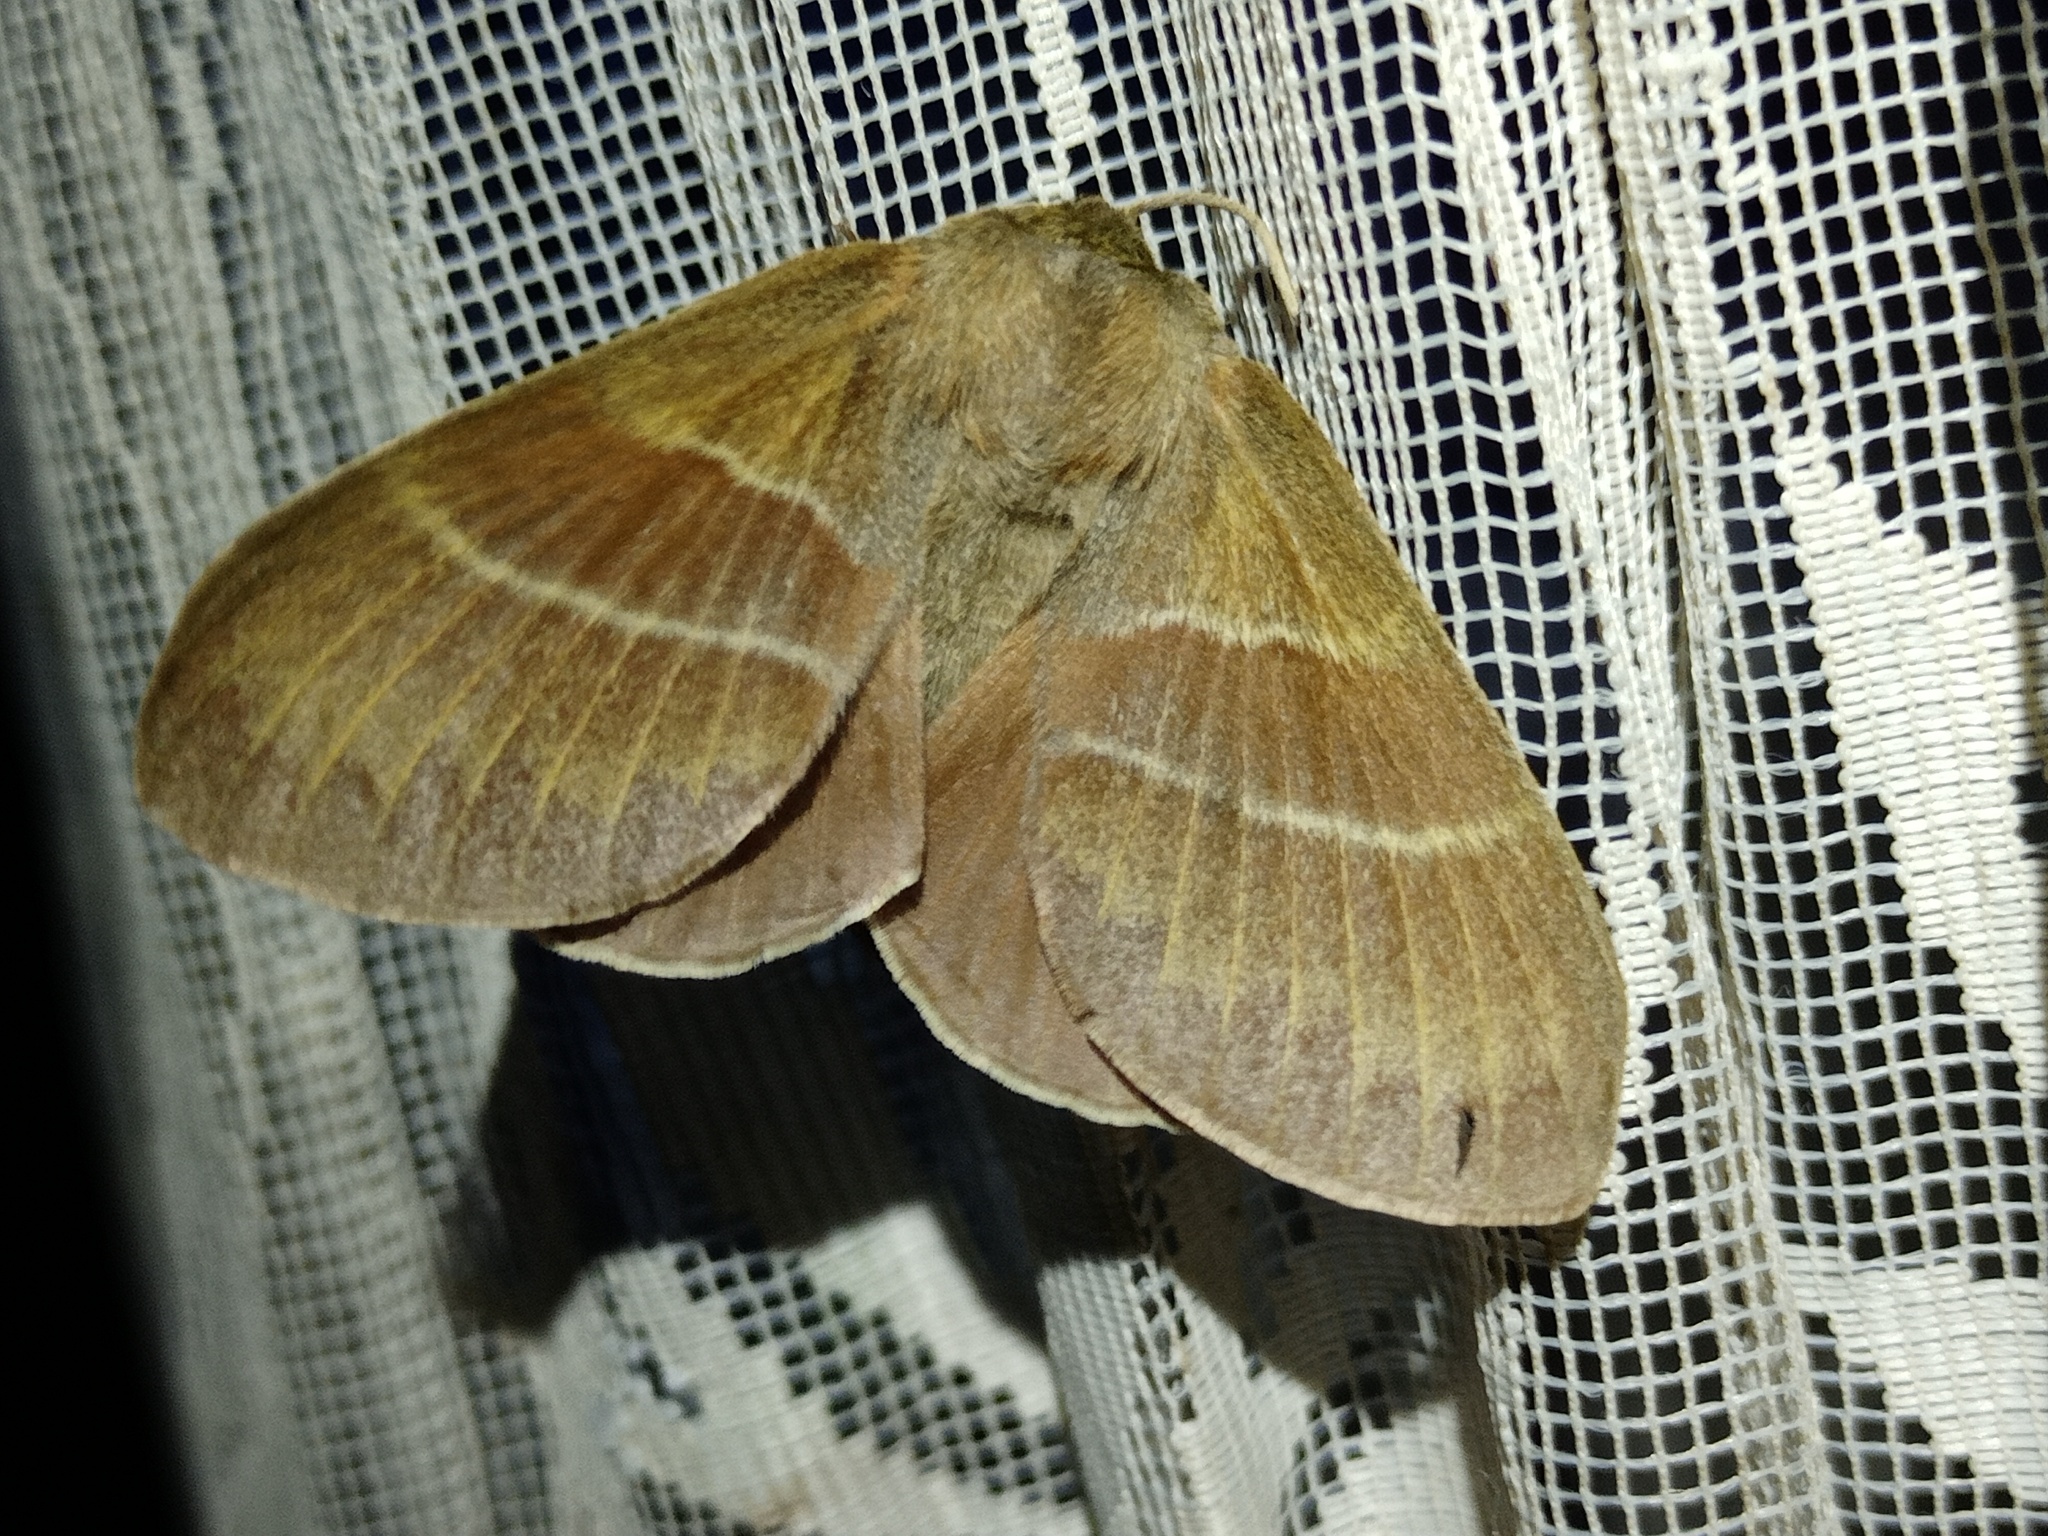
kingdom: Animalia
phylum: Arthropoda
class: Insecta
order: Lepidoptera
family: Lasiocampidae
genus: Macrothylacia
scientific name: Macrothylacia rubi
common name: Fox moth
